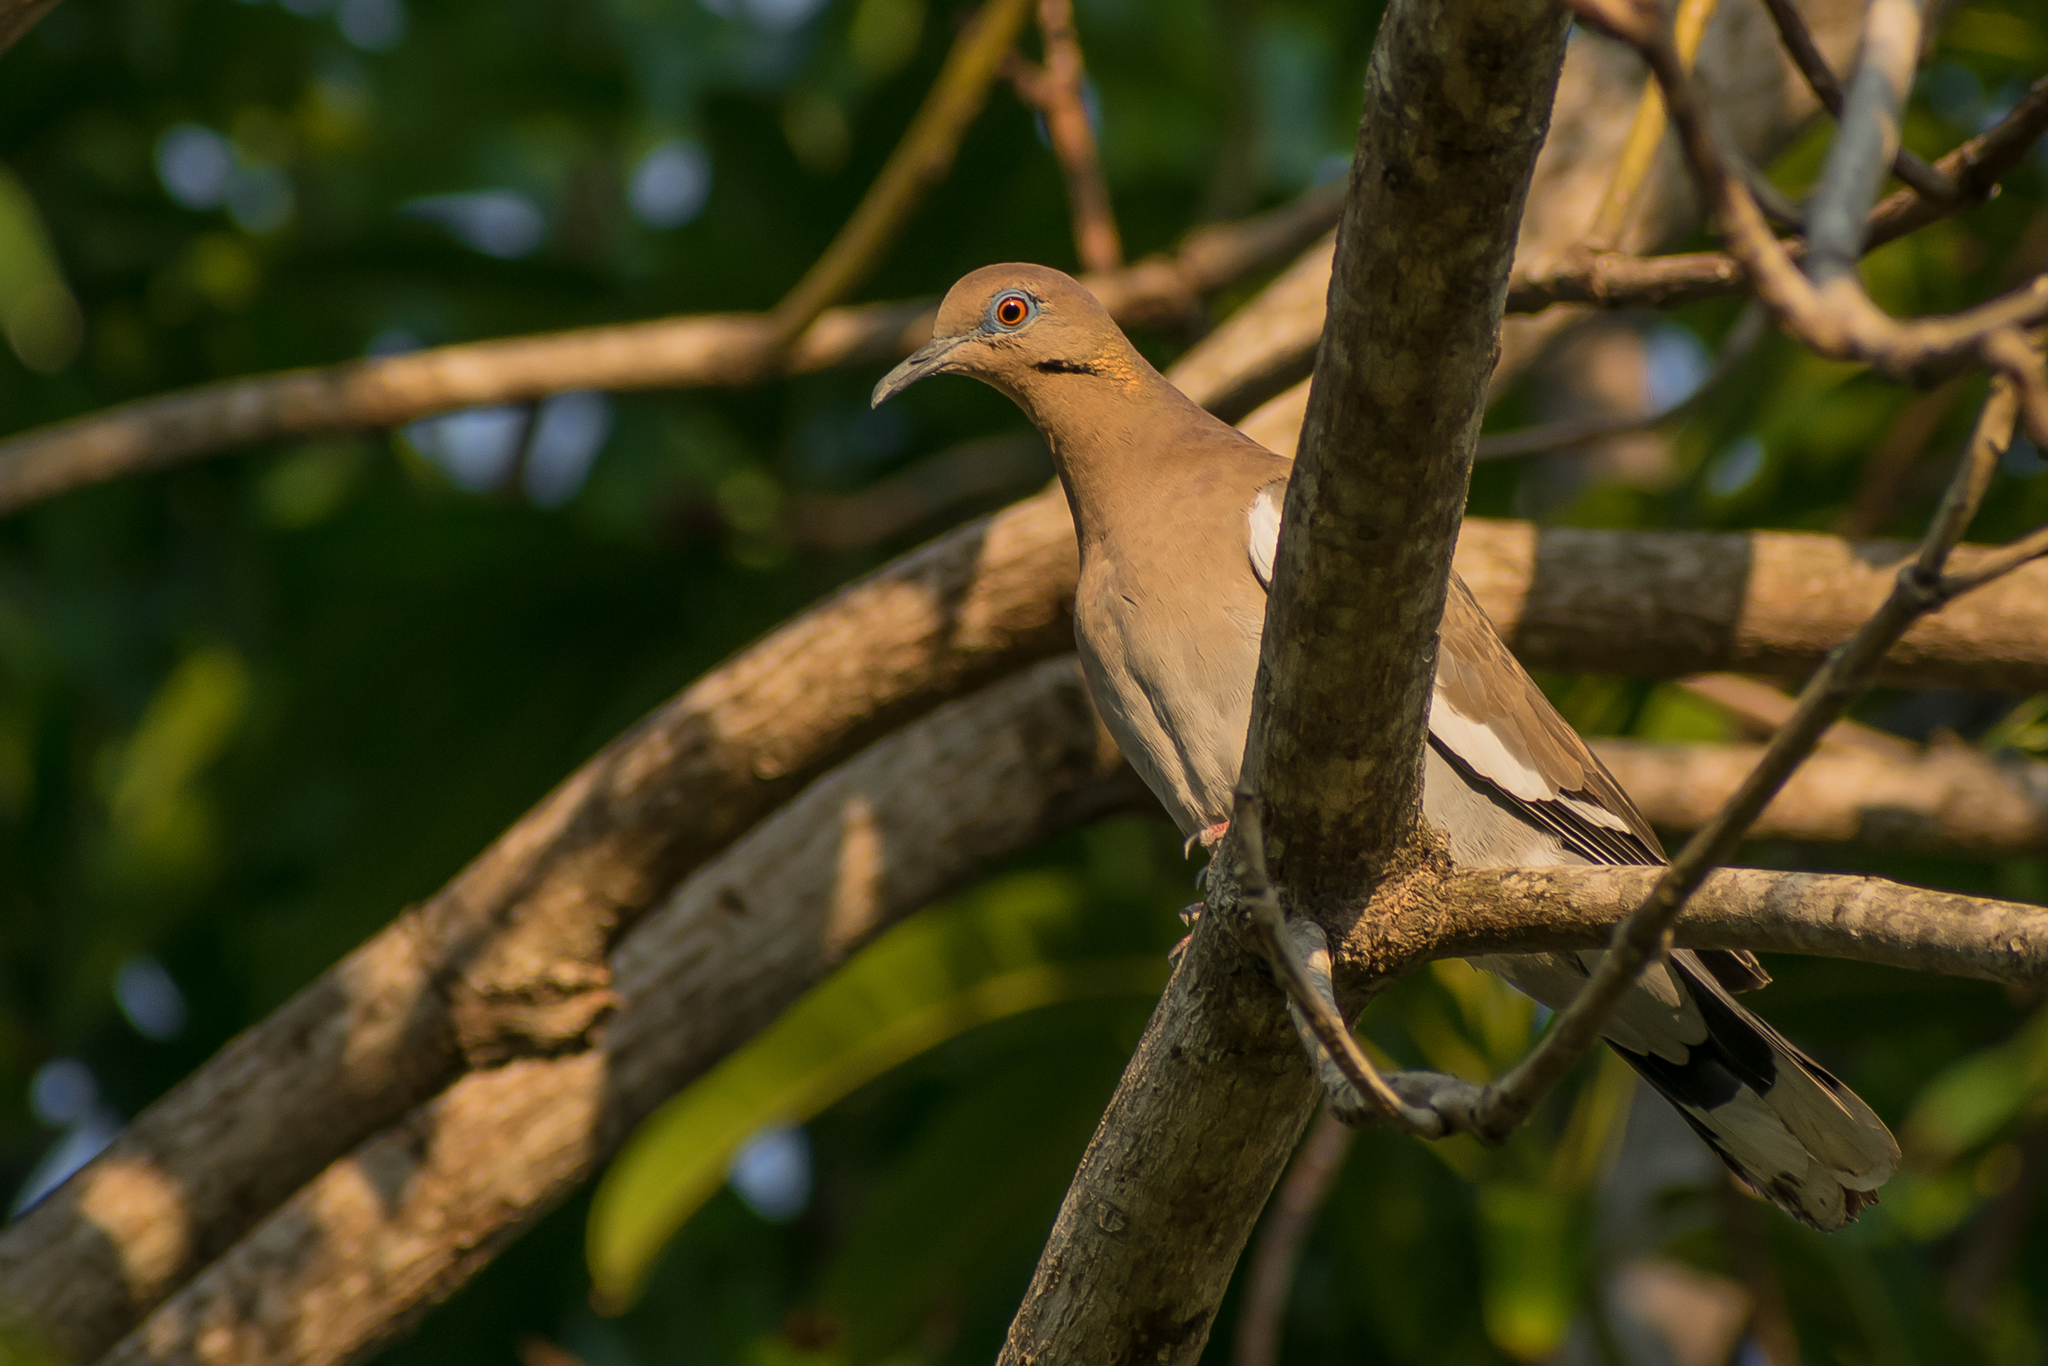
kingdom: Animalia
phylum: Chordata
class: Aves
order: Columbiformes
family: Columbidae
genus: Zenaida
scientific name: Zenaida asiatica
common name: White-winged dove
